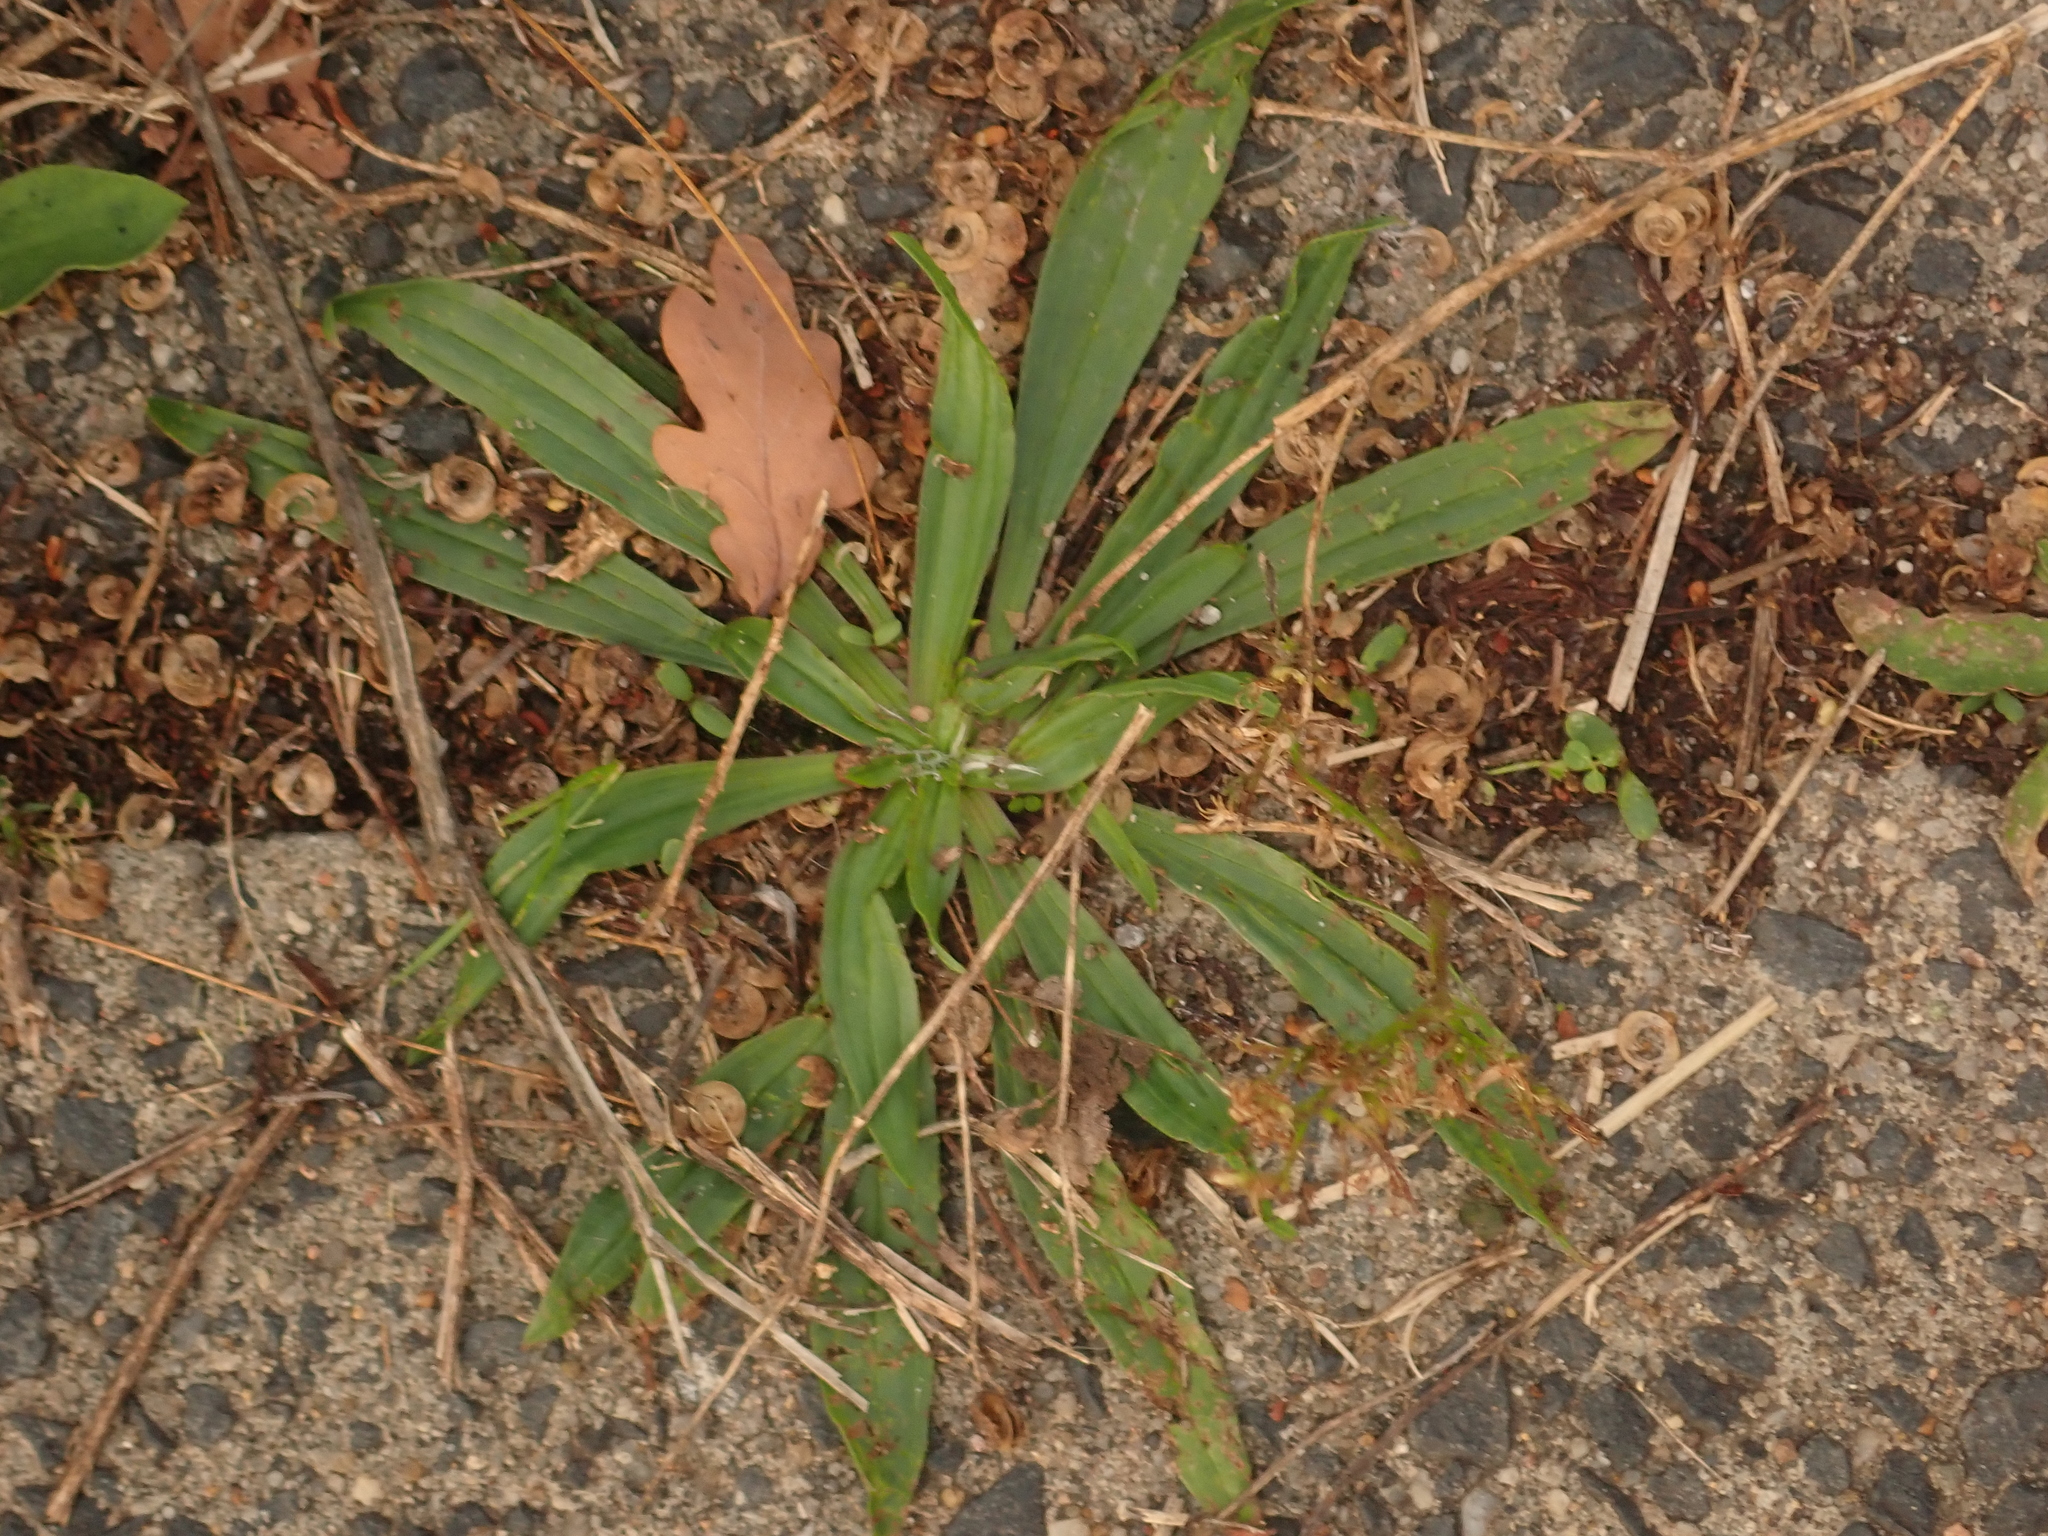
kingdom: Plantae
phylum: Tracheophyta
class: Magnoliopsida
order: Lamiales
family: Plantaginaceae
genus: Plantago
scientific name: Plantago lanceolata
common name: Ribwort plantain
